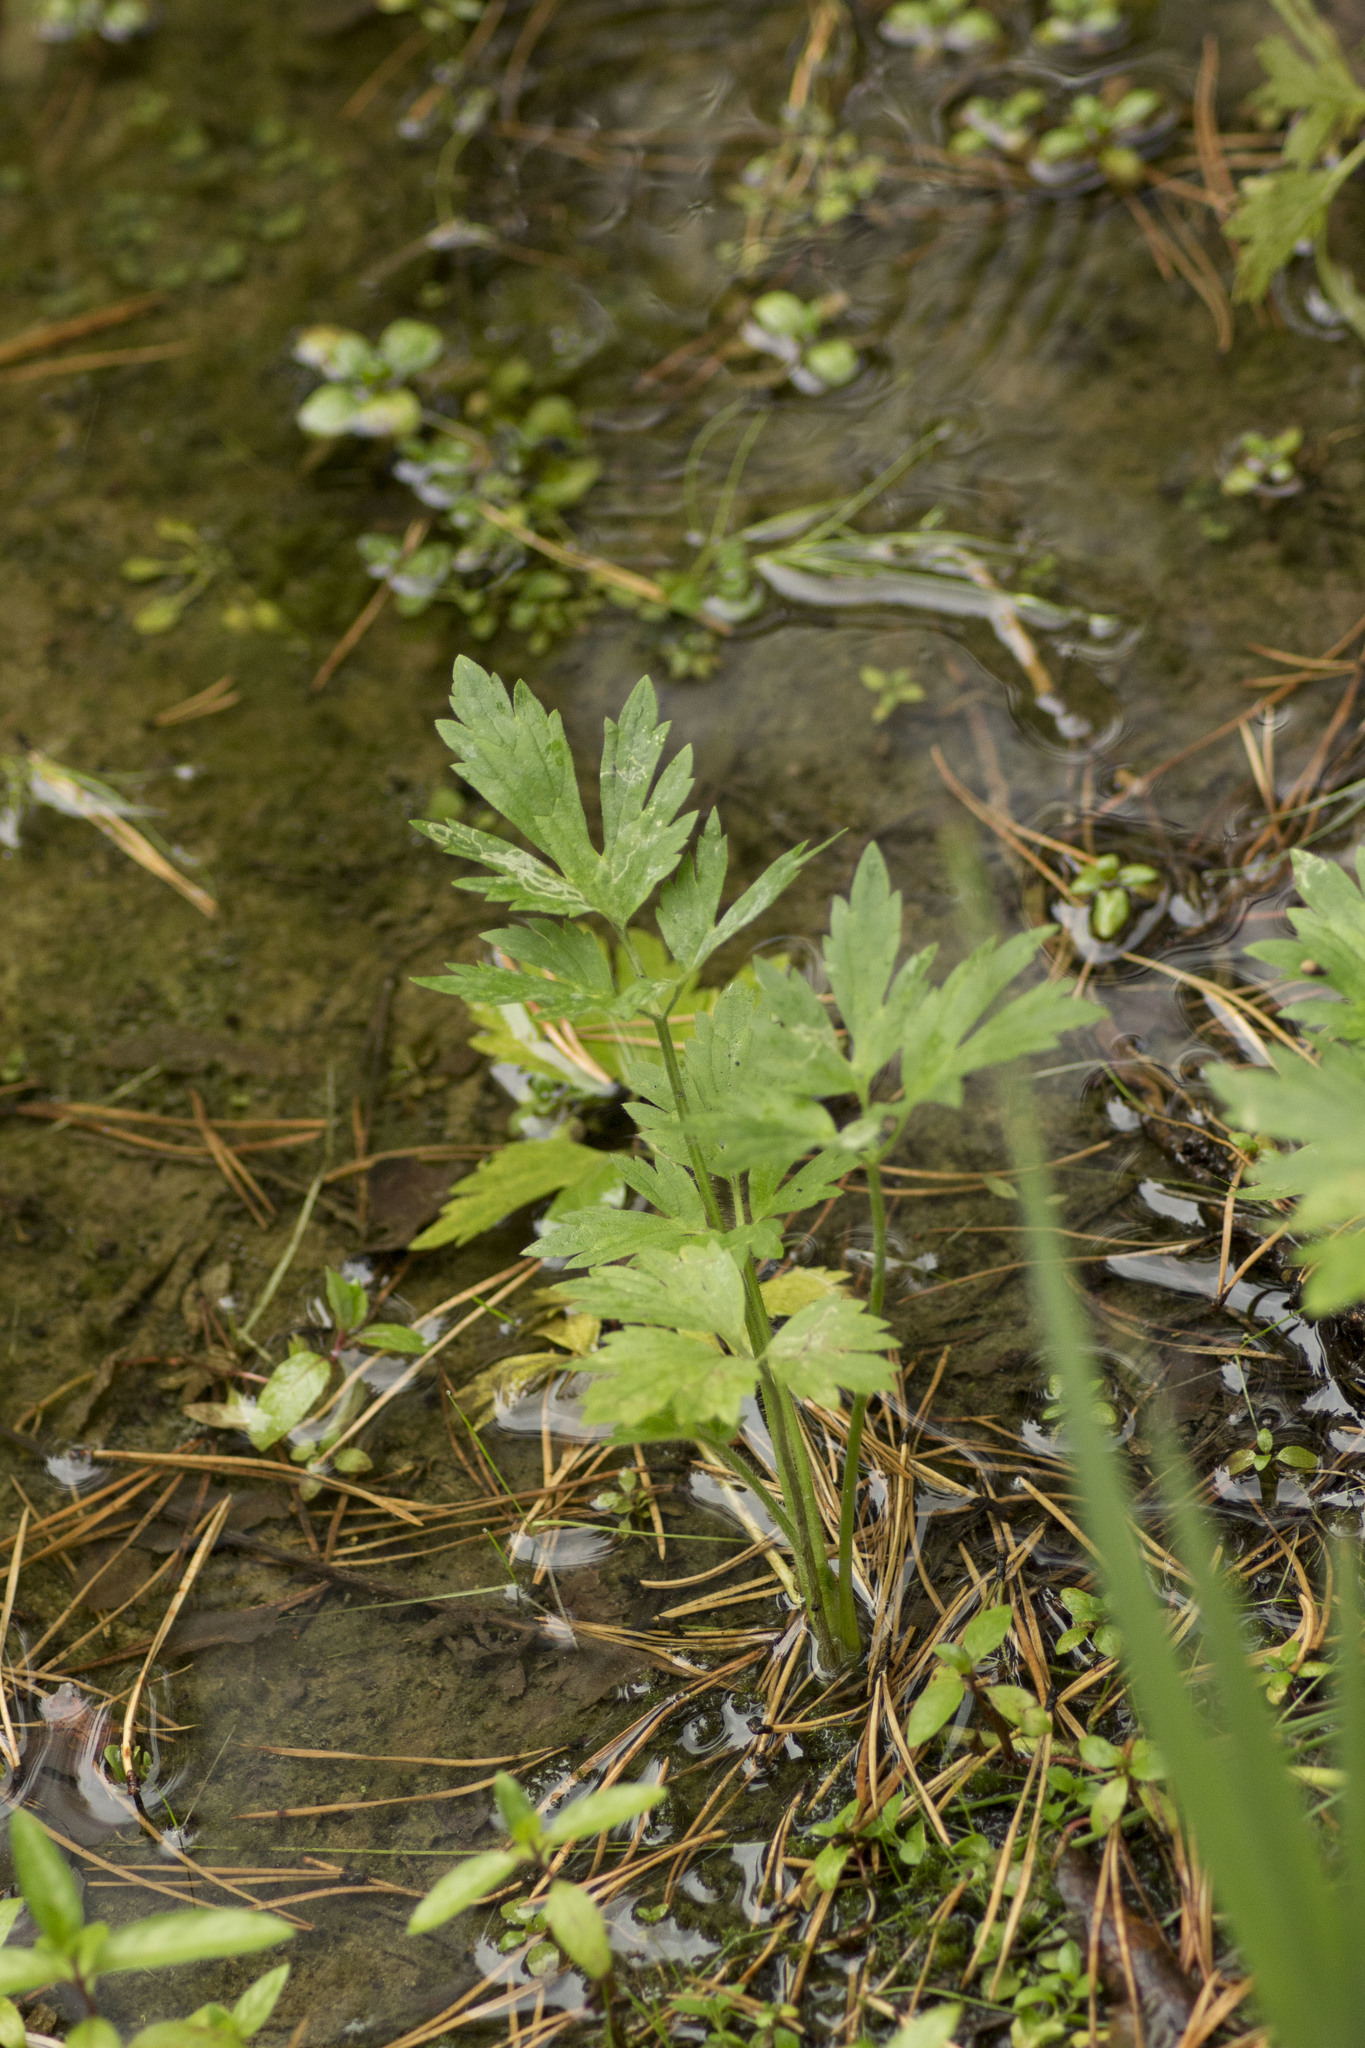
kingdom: Plantae
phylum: Tracheophyta
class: Magnoliopsida
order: Ranunculales
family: Ranunculaceae
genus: Ranunculus
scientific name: Ranunculus repens
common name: Creeping buttercup
